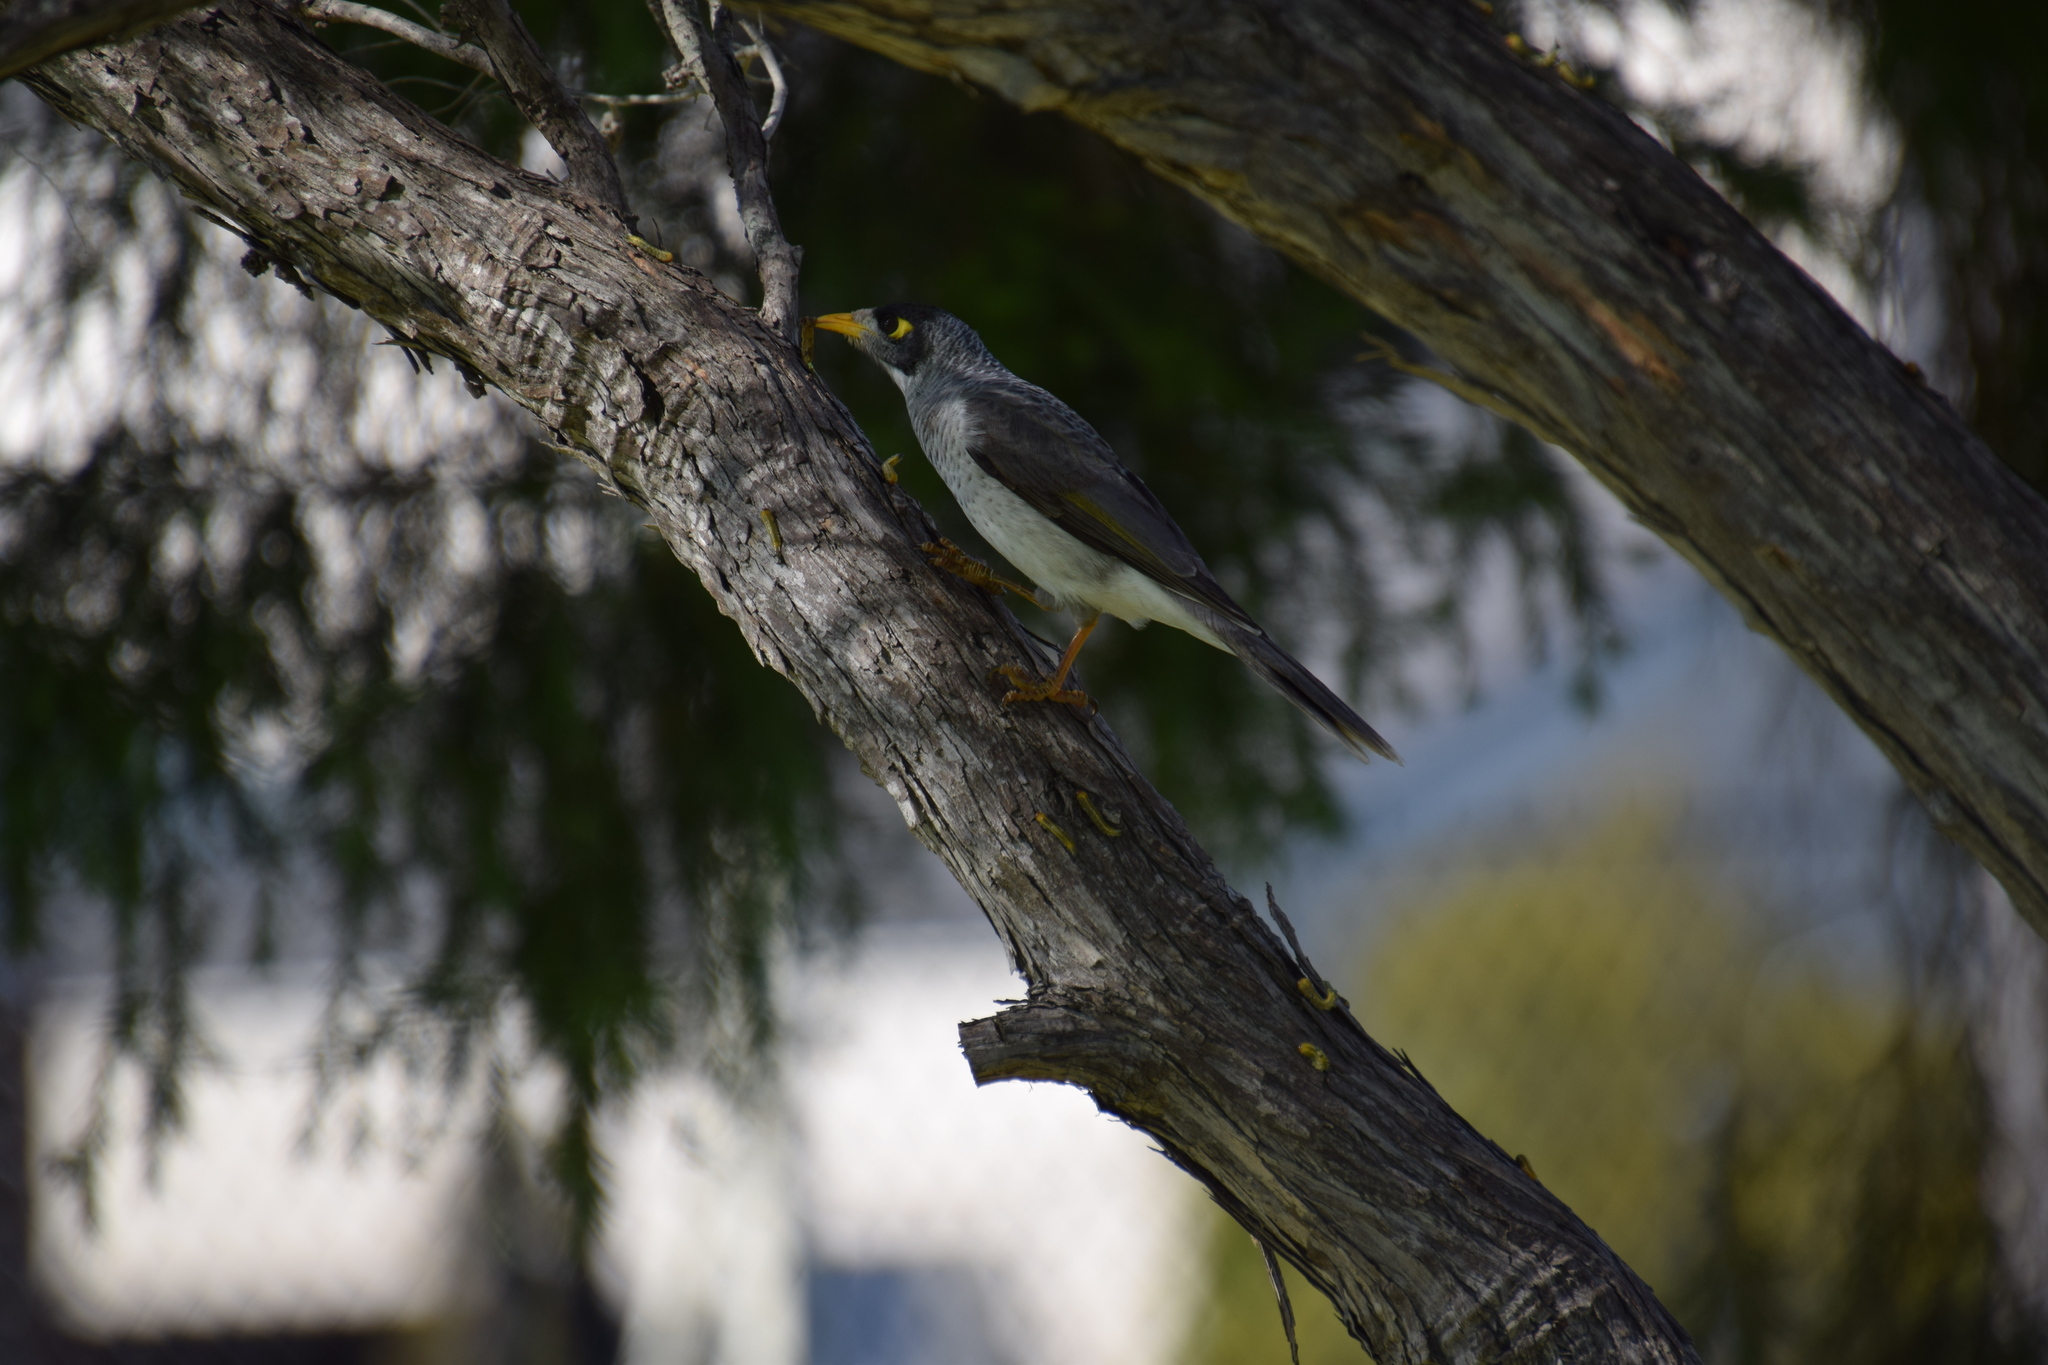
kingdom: Animalia
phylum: Chordata
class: Aves
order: Passeriformes
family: Meliphagidae
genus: Manorina
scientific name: Manorina melanocephala
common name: Noisy miner
